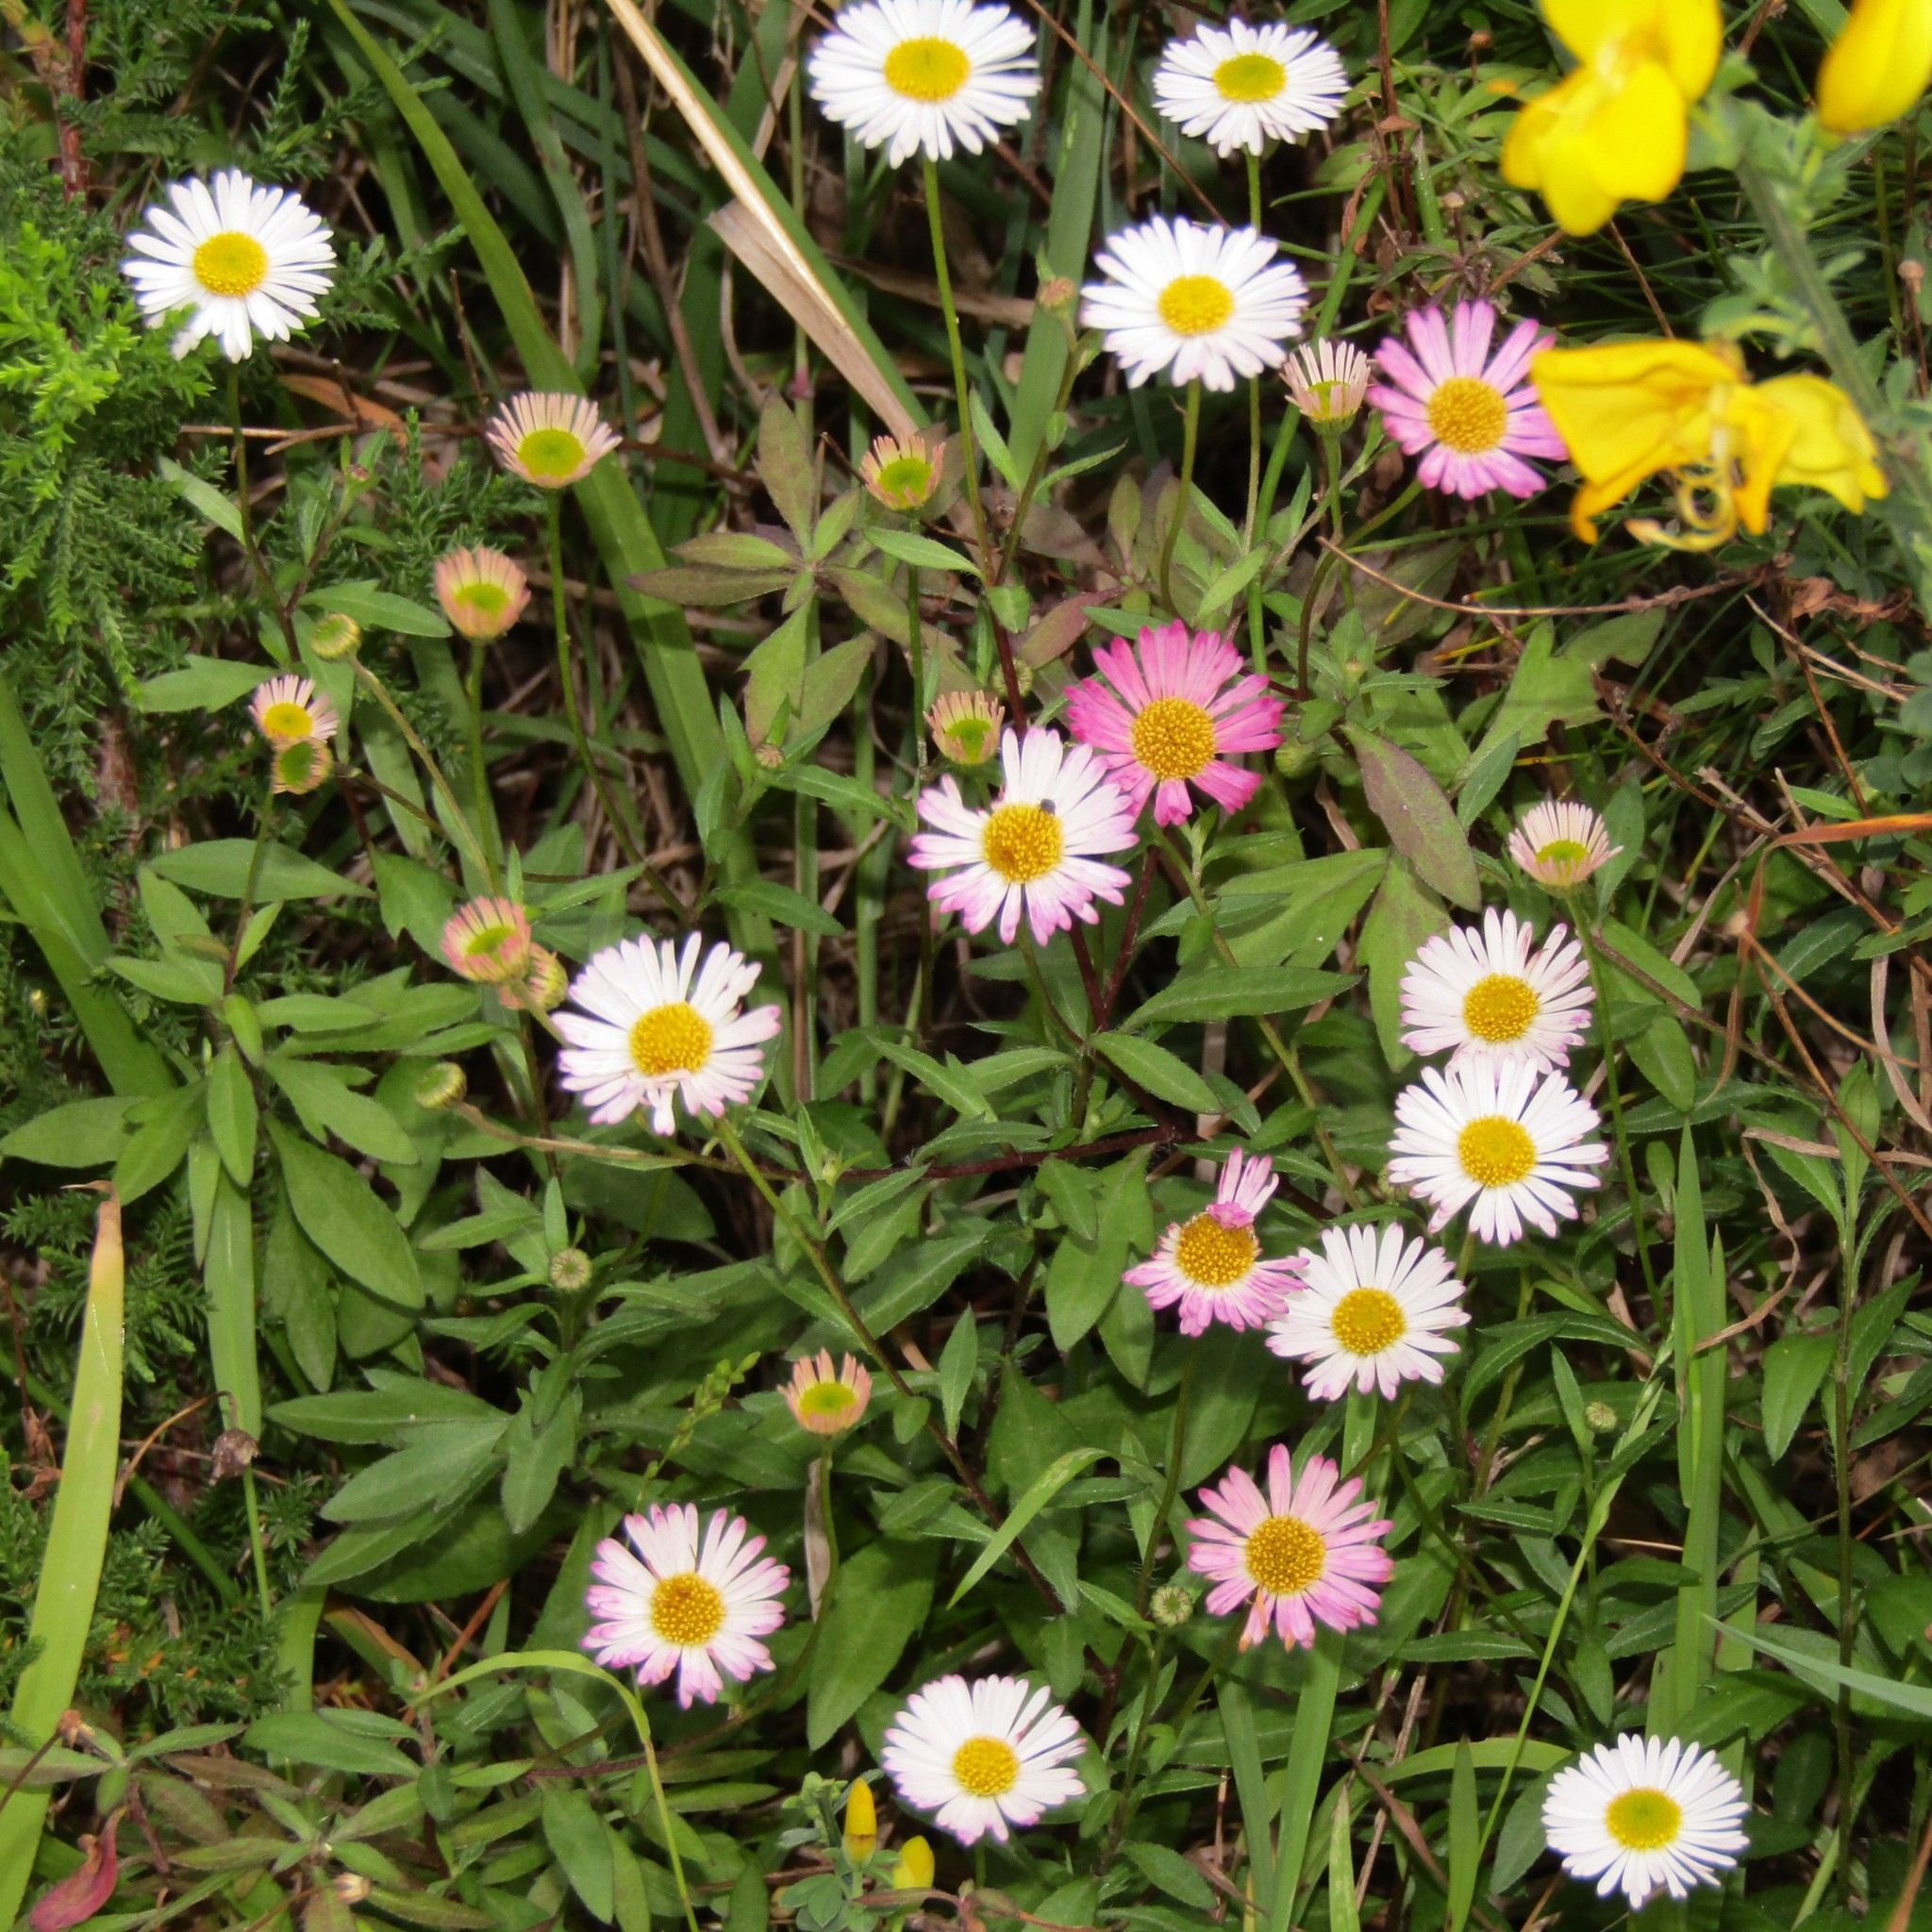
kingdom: Plantae
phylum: Tracheophyta
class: Magnoliopsida
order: Asterales
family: Asteraceae
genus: Erigeron
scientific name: Erigeron karvinskianus
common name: Mexican fleabane
